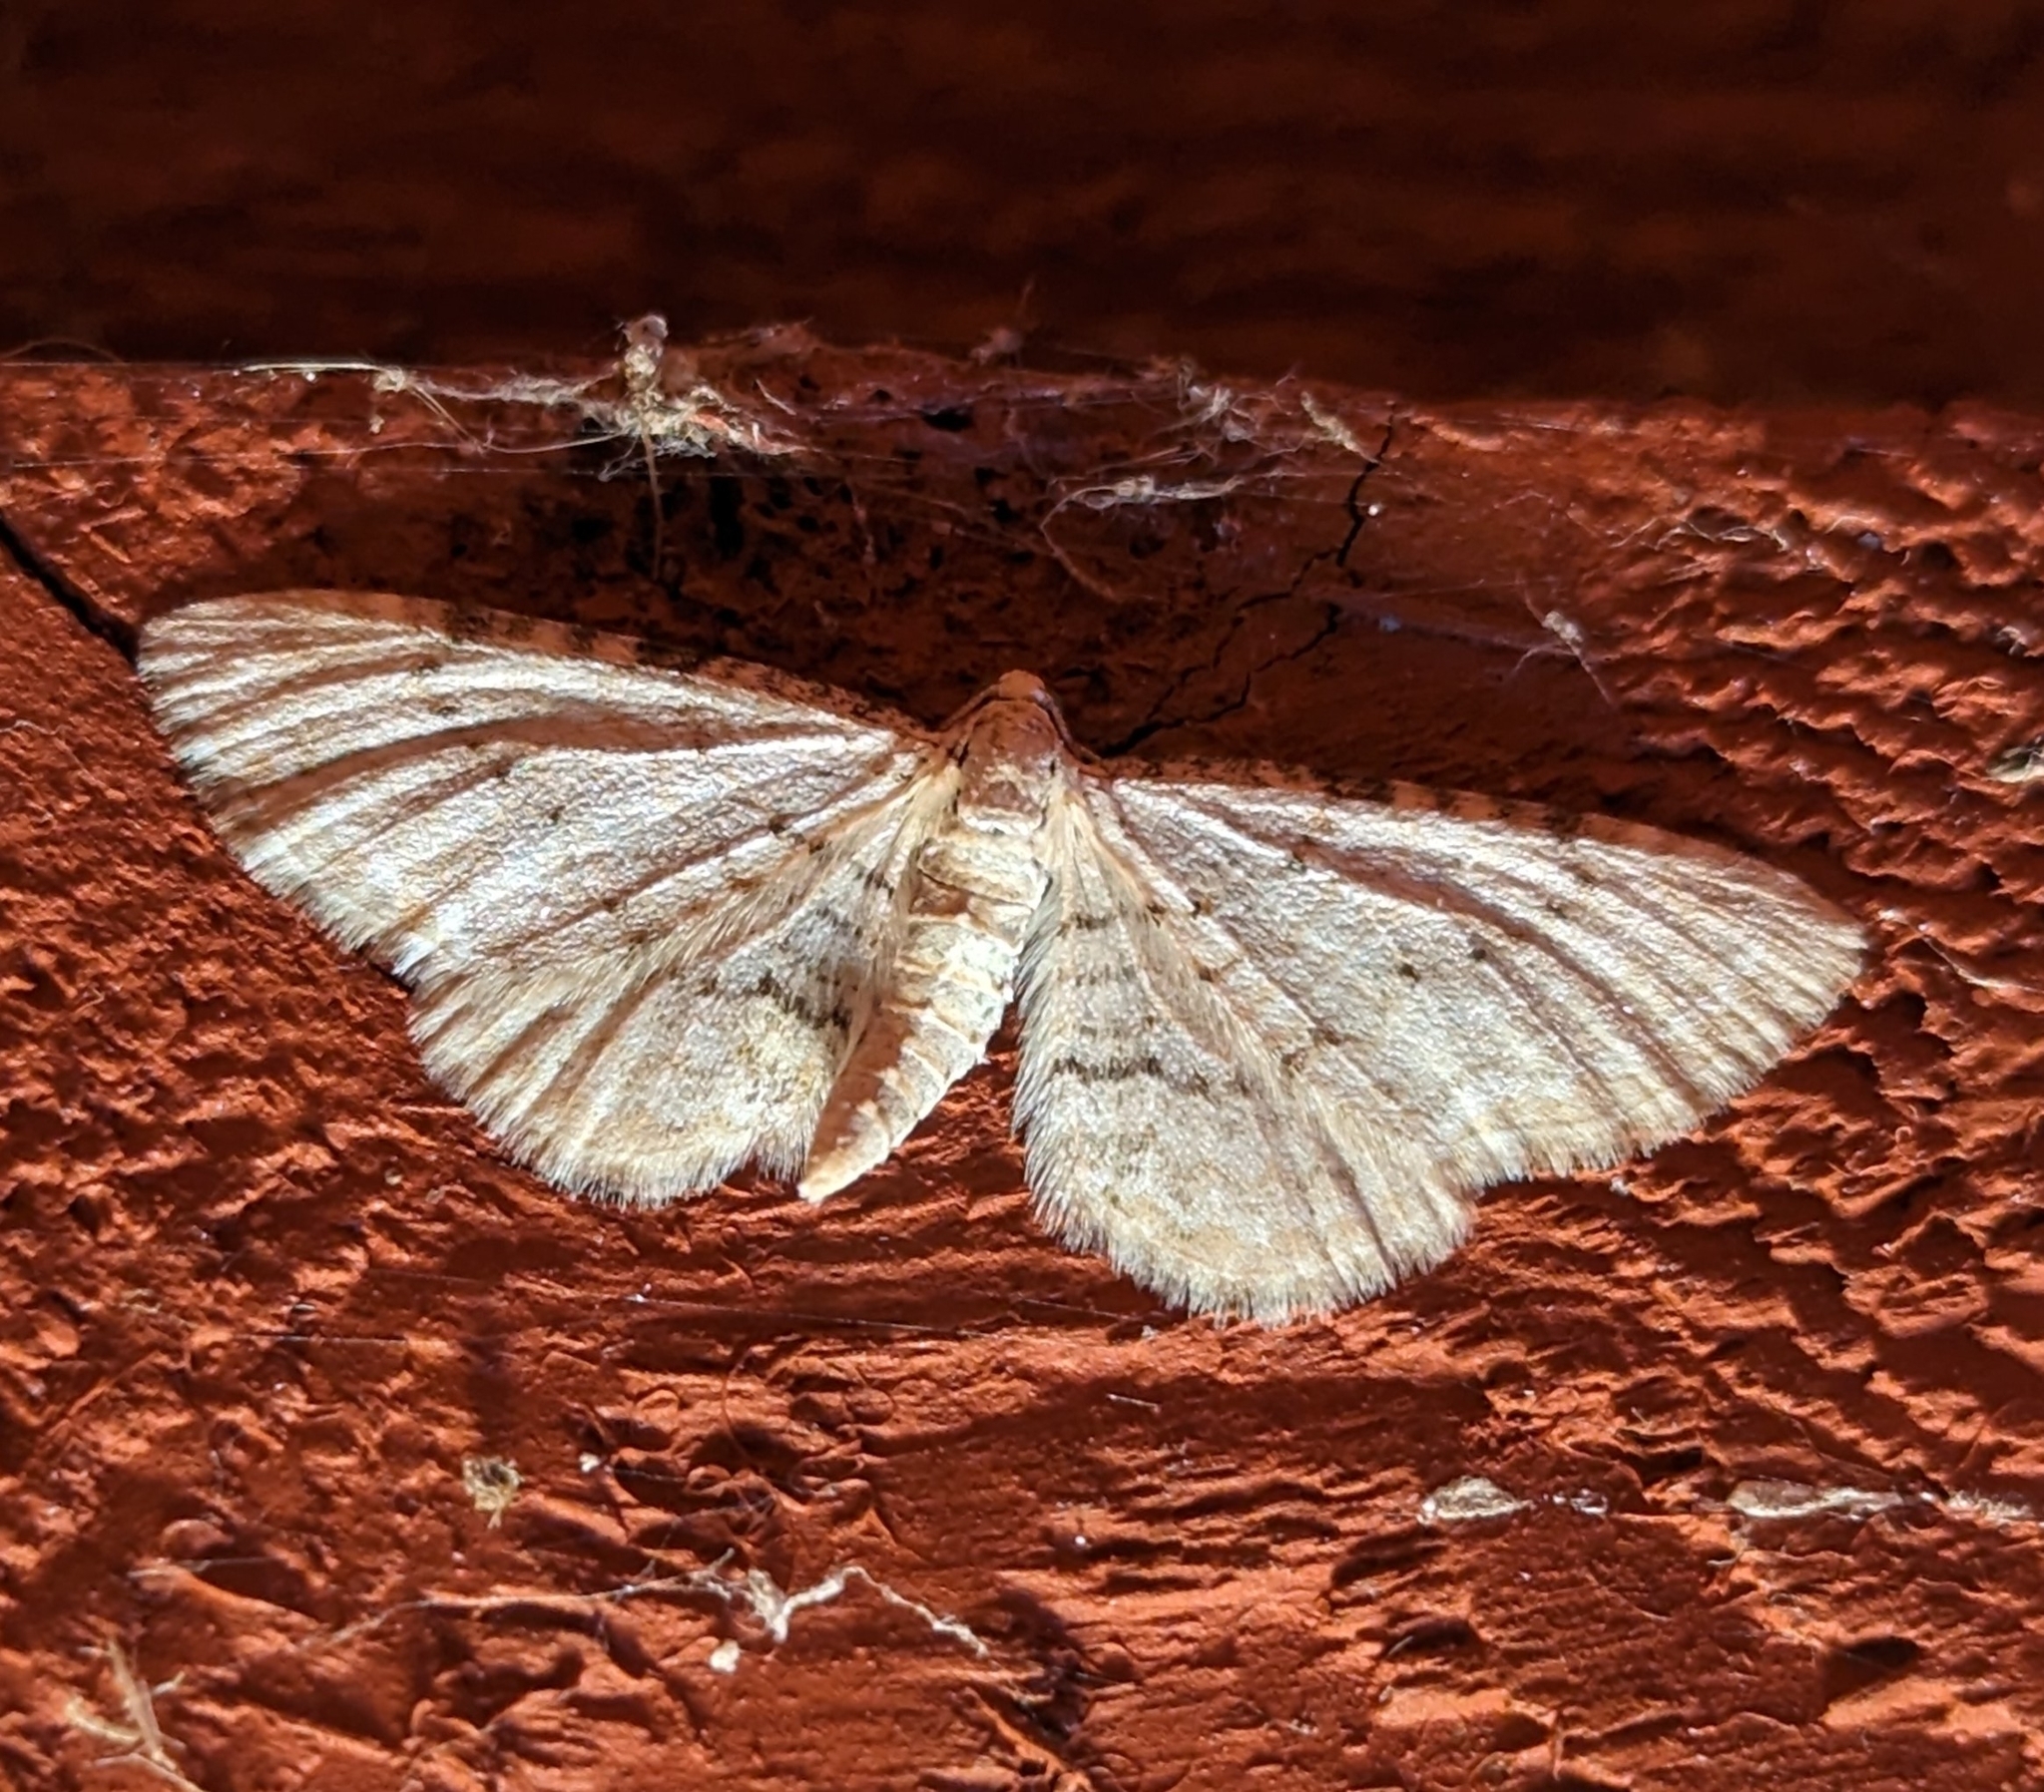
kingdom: Animalia
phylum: Arthropoda
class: Insecta
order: Lepidoptera
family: Geometridae
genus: Eupithecia
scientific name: Eupithecia cretaceata
